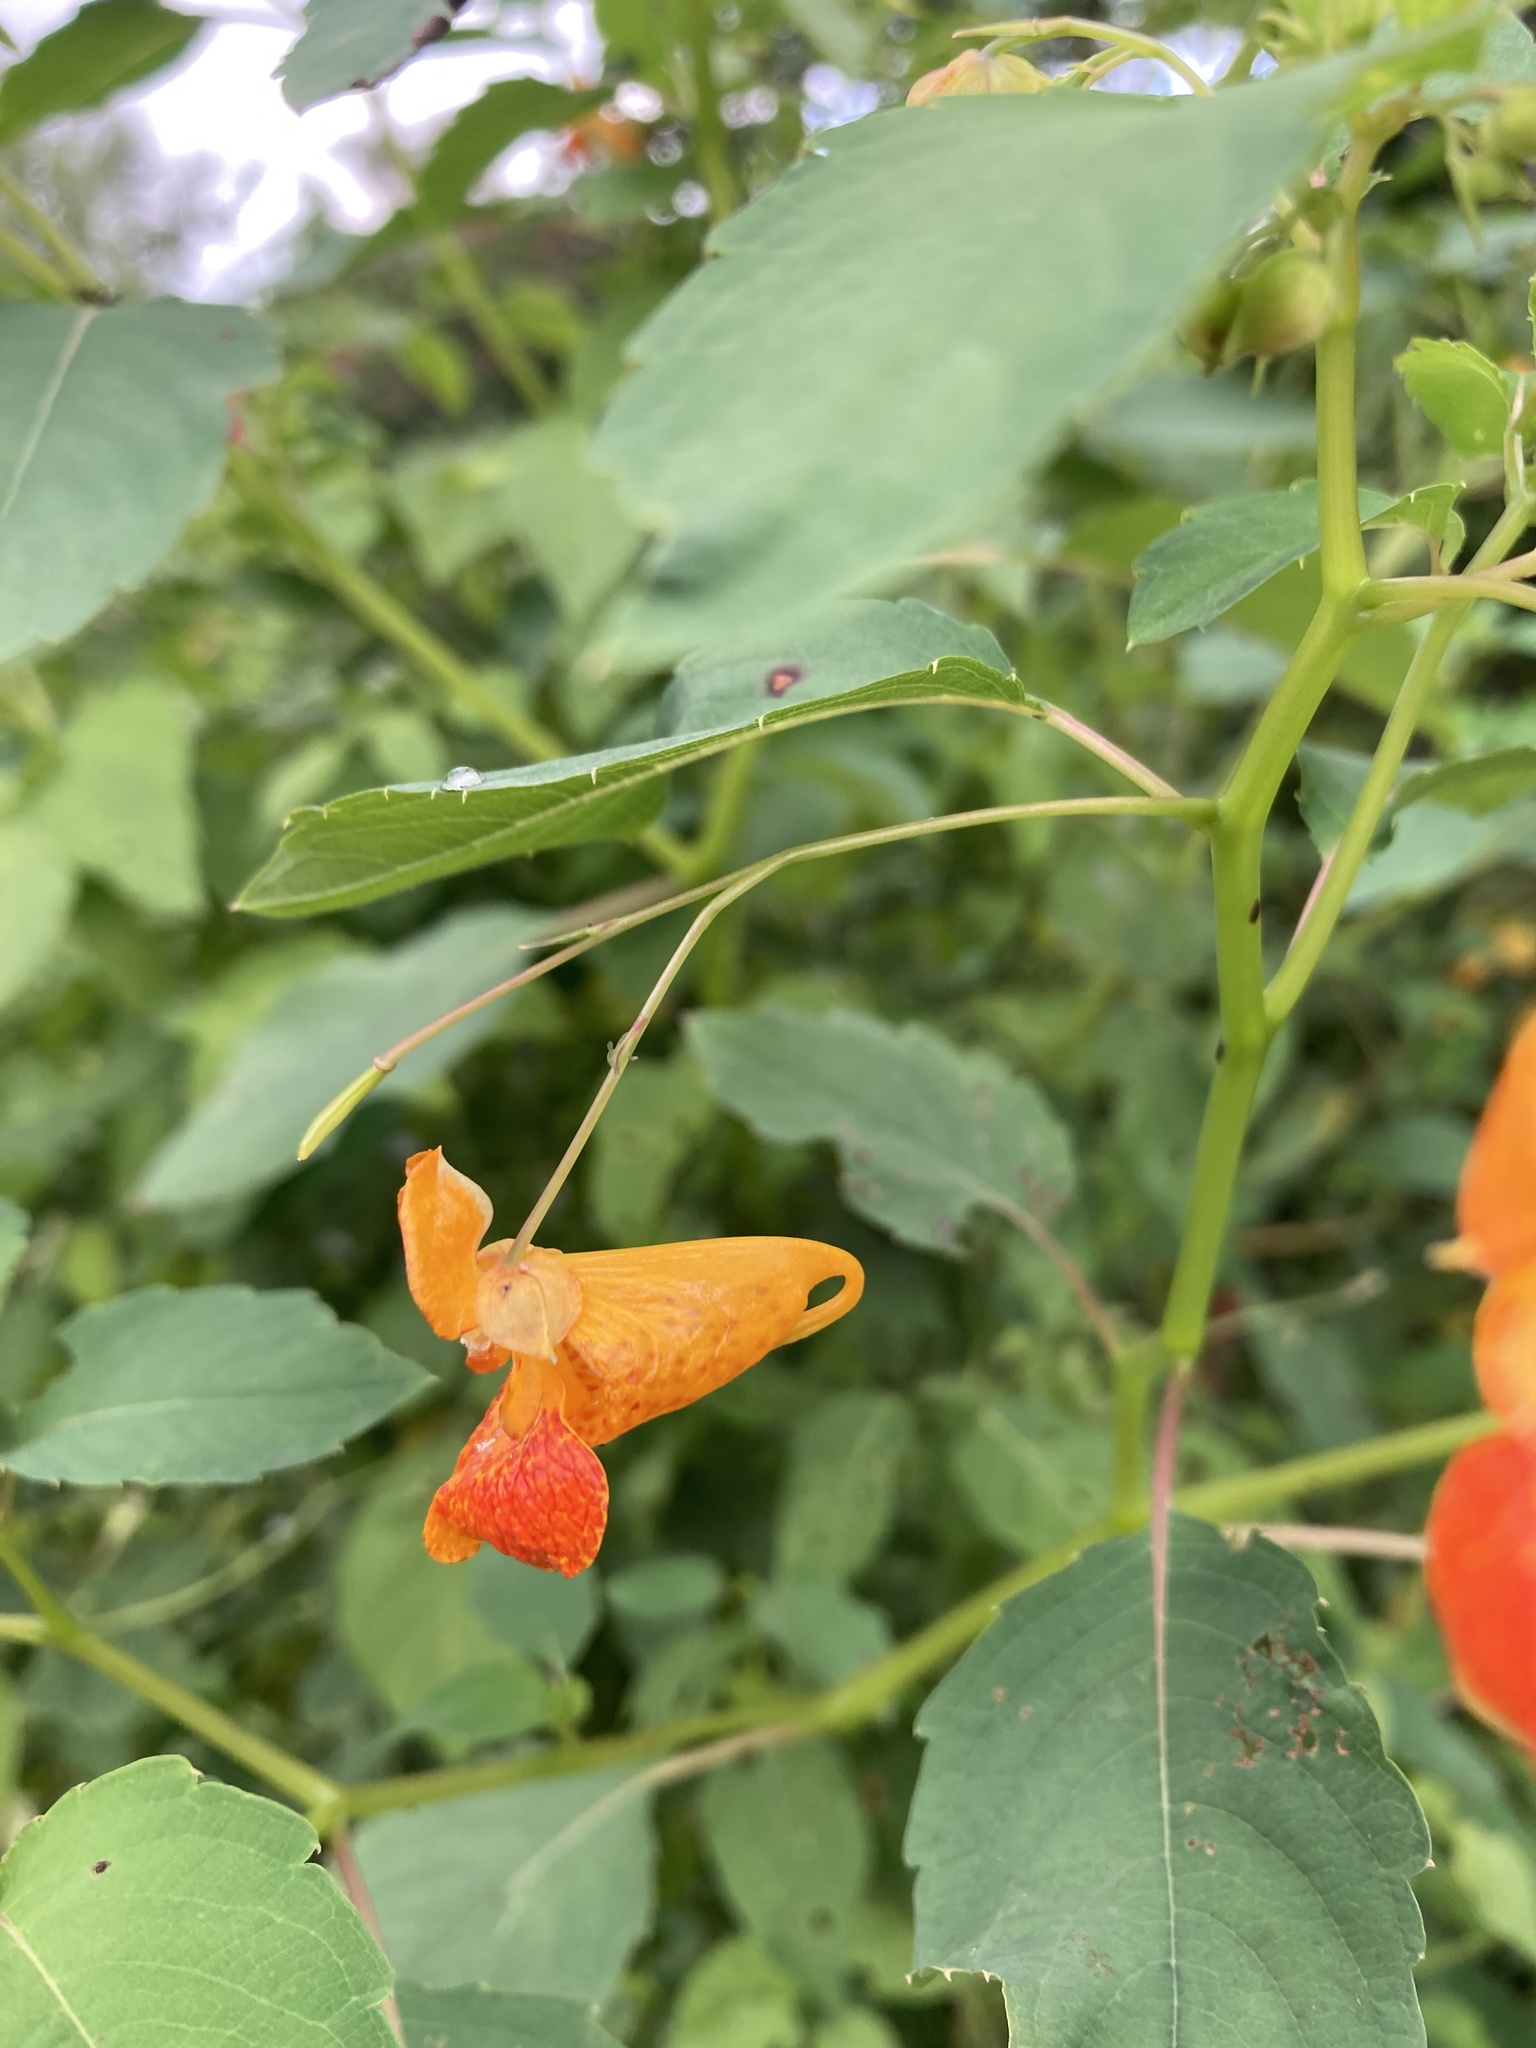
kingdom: Plantae
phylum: Tracheophyta
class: Magnoliopsida
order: Ericales
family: Balsaminaceae
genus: Impatiens
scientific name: Impatiens capensis
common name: Orange balsam
